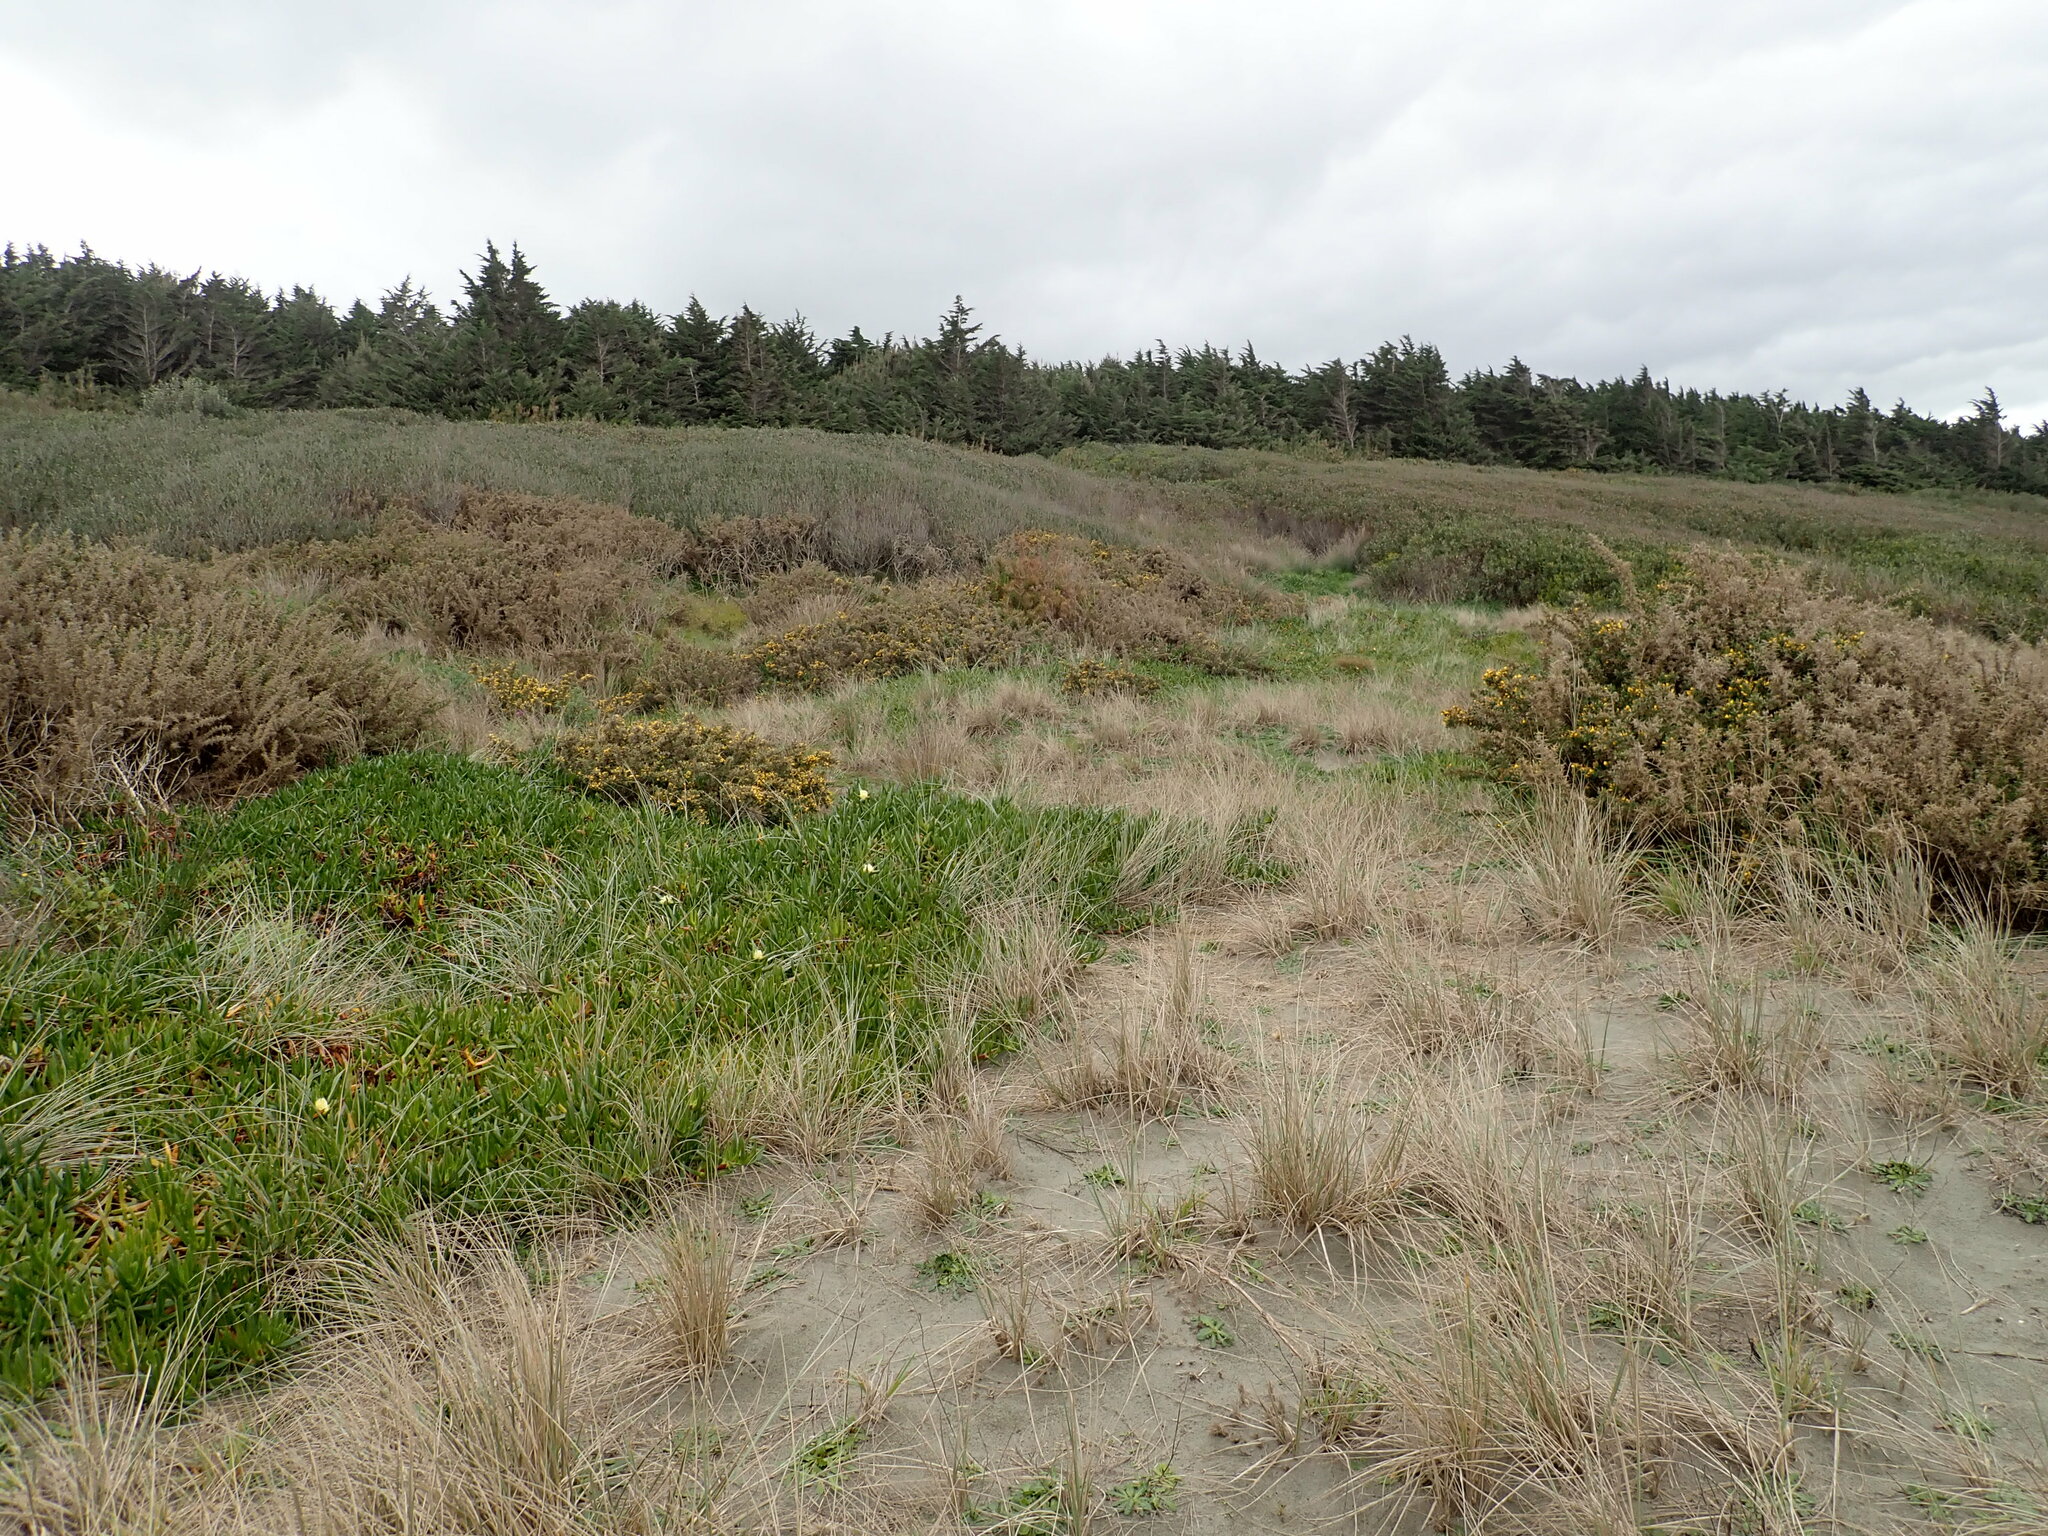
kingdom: Plantae
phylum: Tracheophyta
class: Magnoliopsida
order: Fabales
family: Fabaceae
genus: Ulex
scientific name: Ulex europaeus
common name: Common gorse
